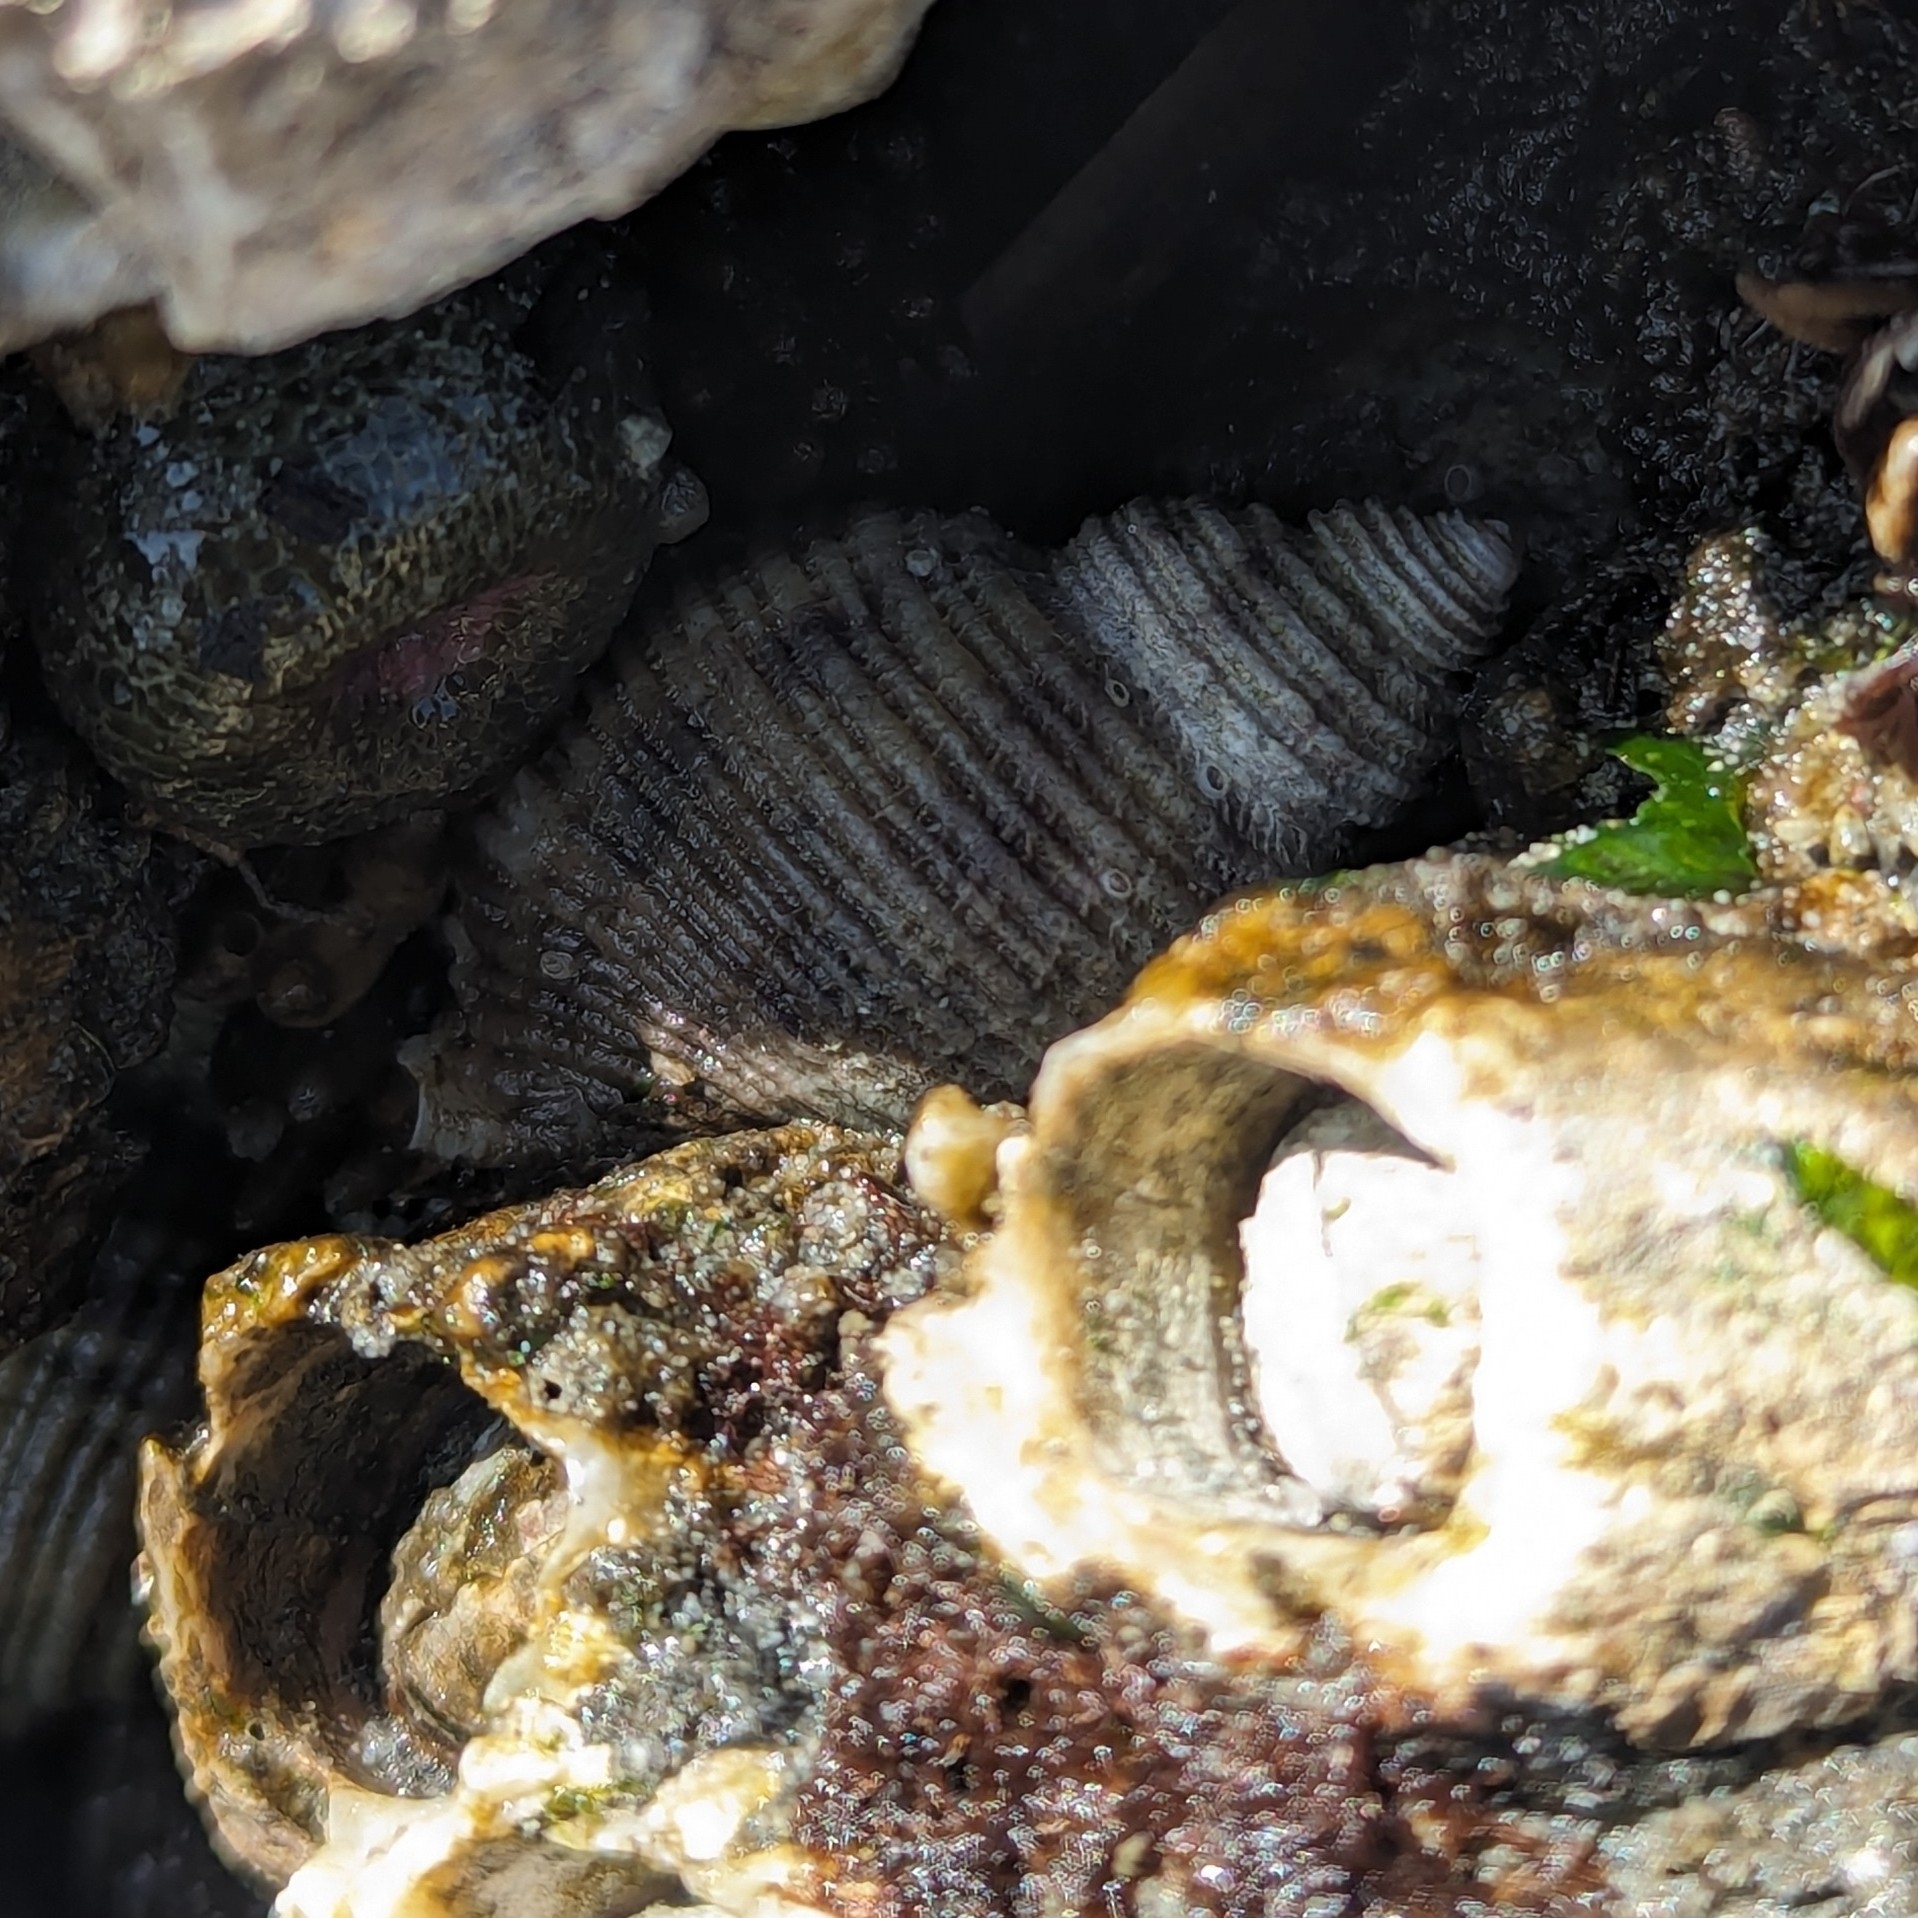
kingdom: Animalia
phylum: Mollusca
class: Gastropoda
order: Neogastropoda
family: Muricidae
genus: Nucella
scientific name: Nucella canaliculata
